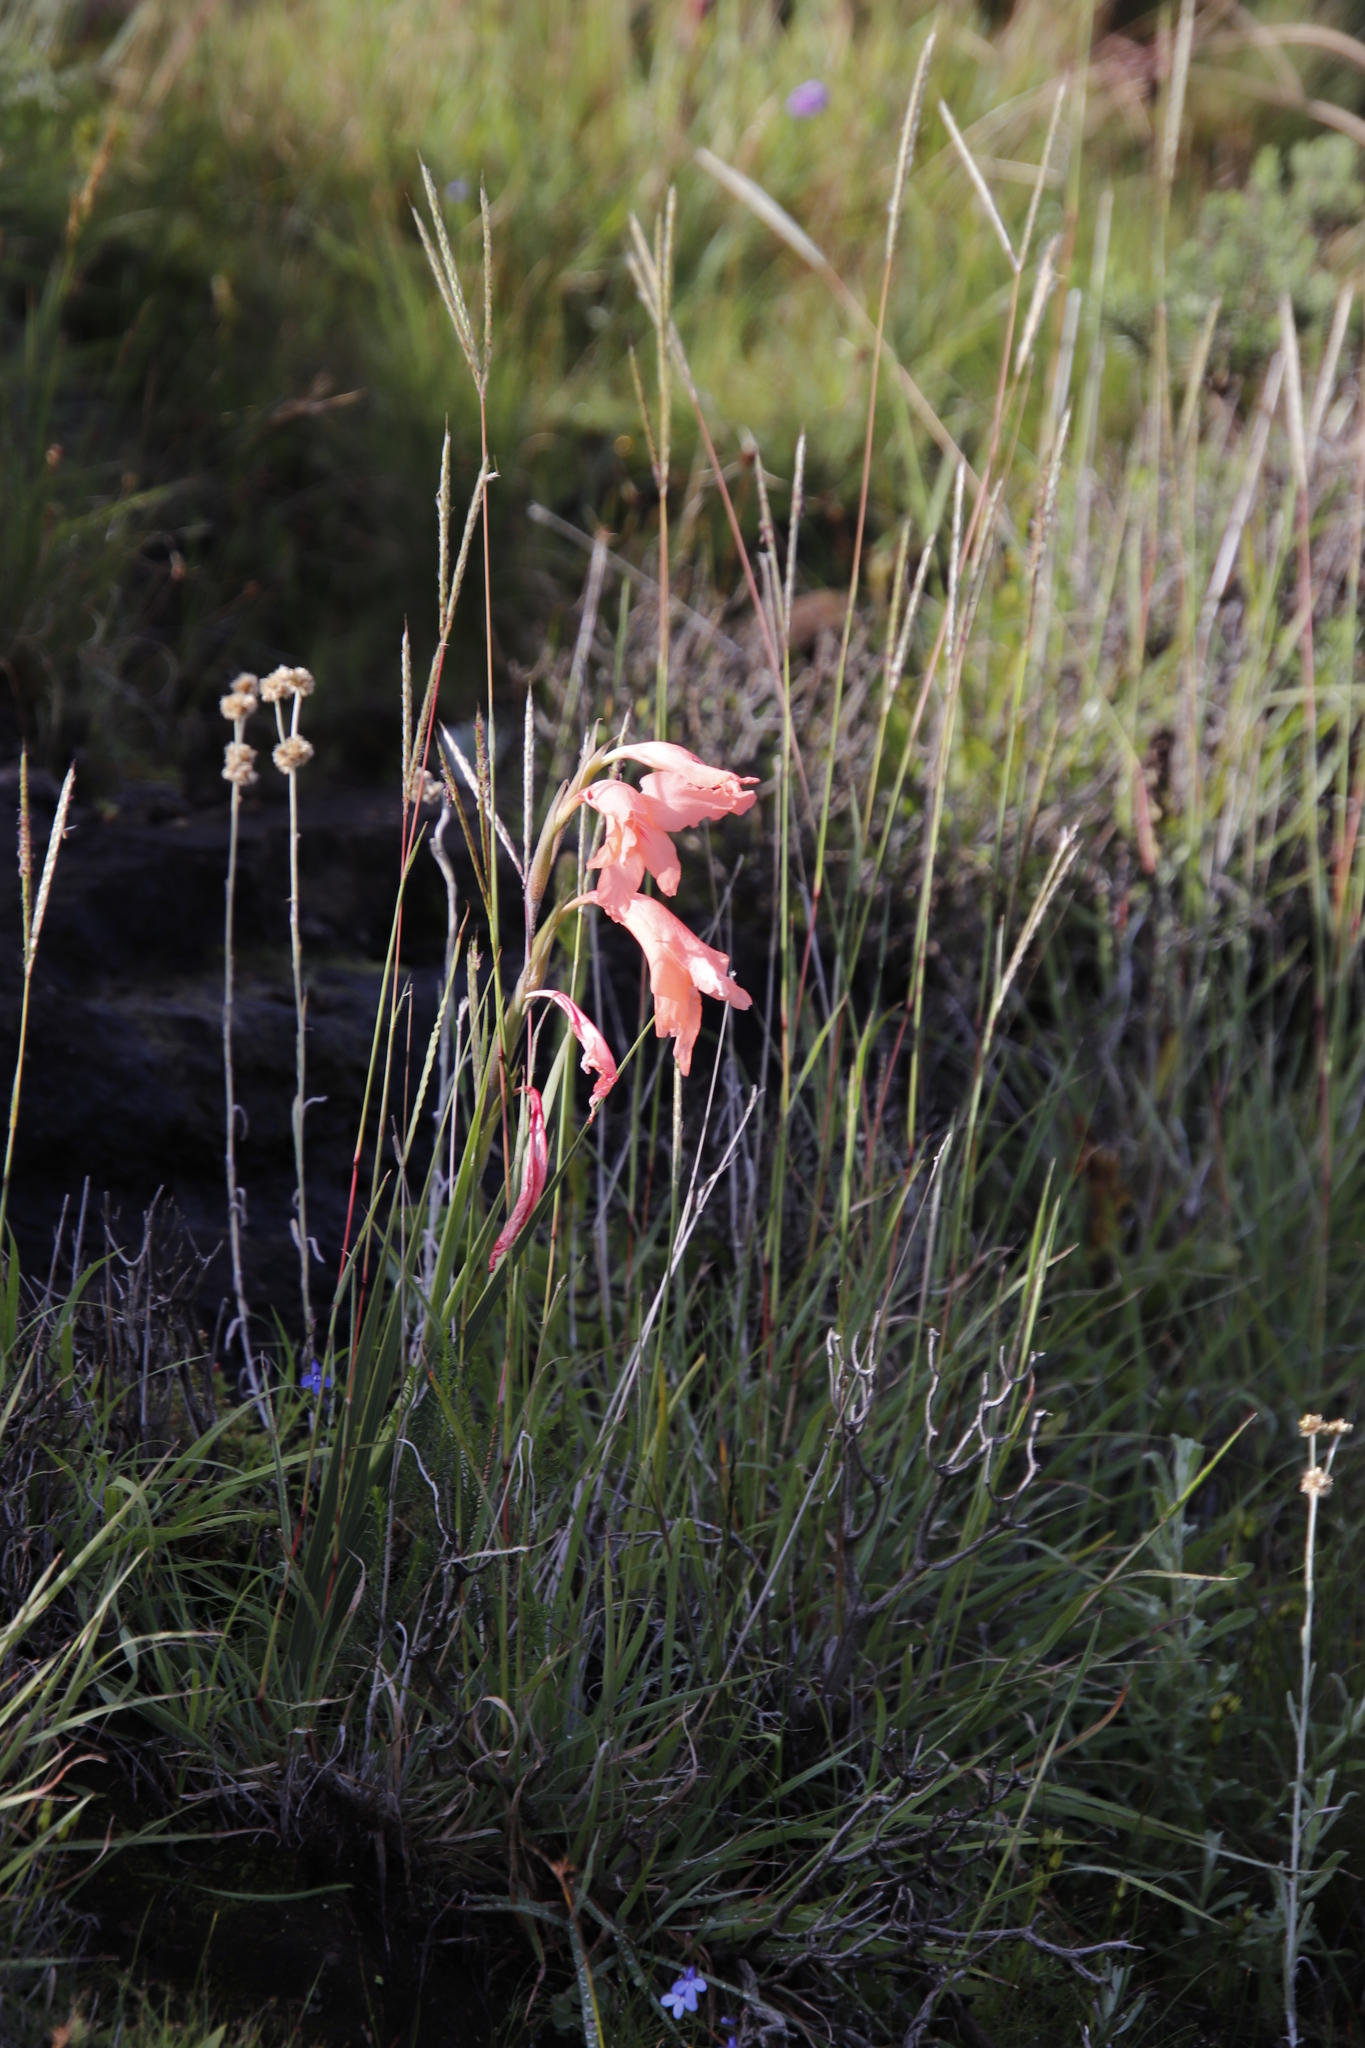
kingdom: Plantae
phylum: Tracheophyta
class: Liliopsida
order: Asparagales
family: Iridaceae
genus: Gladiolus
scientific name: Gladiolus oppositiflorus
